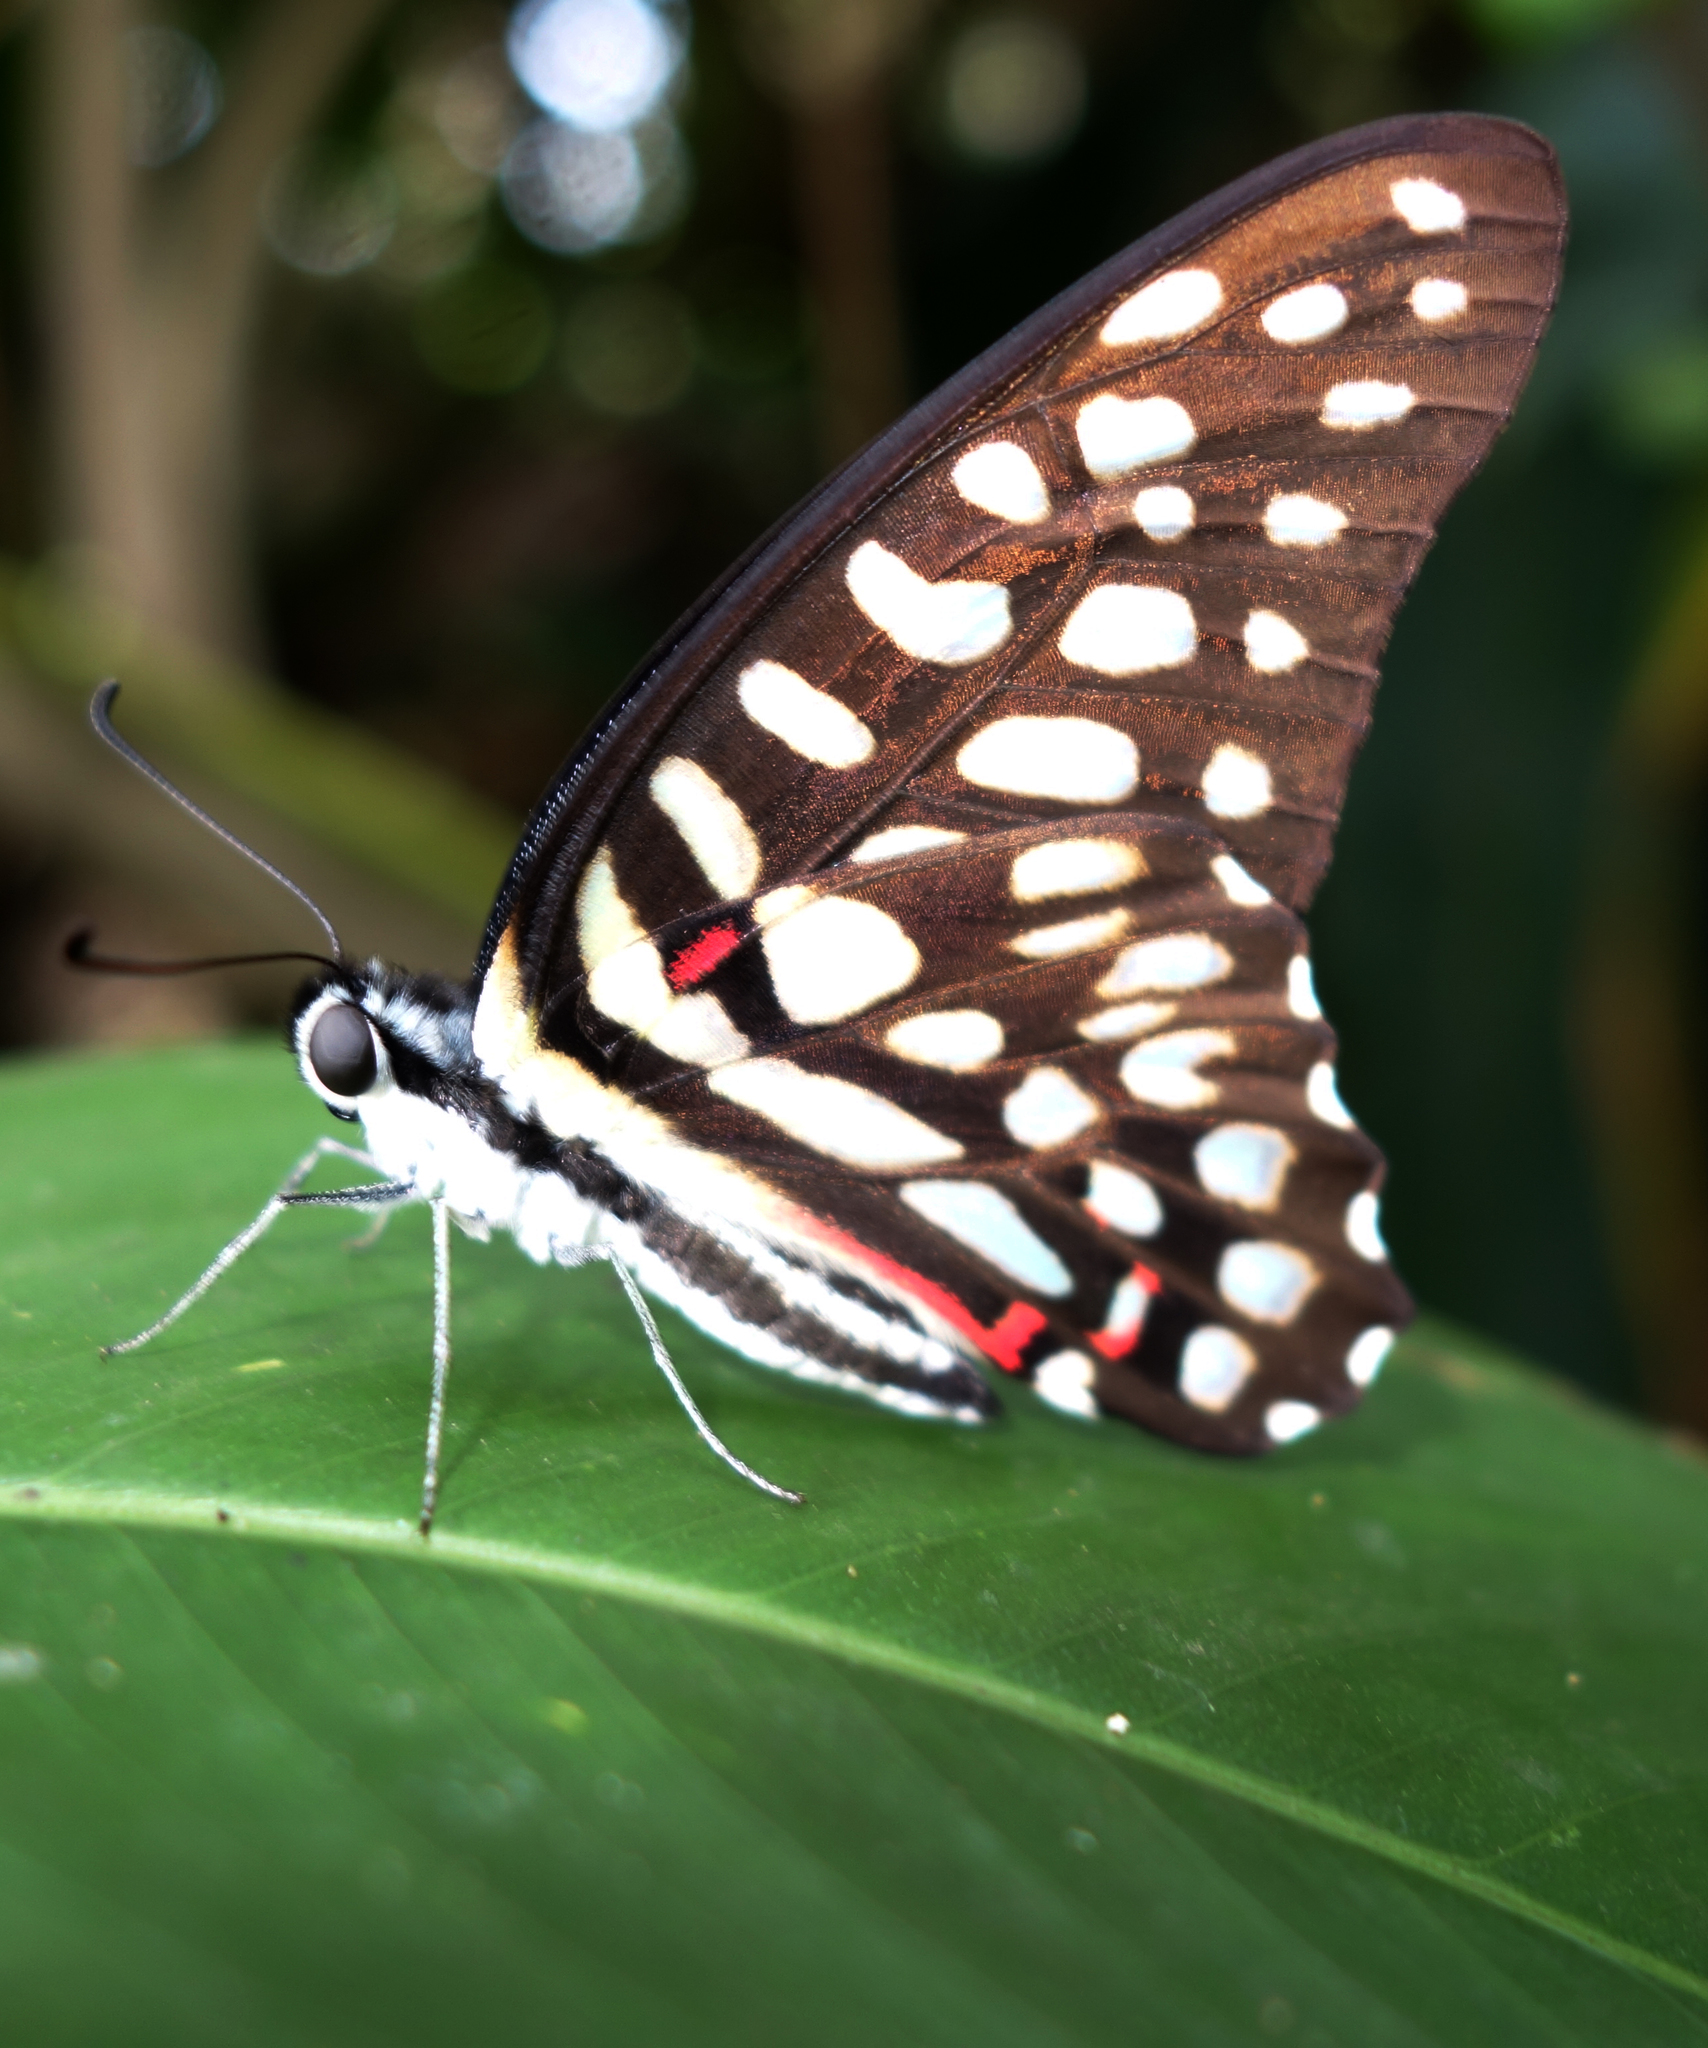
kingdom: Animalia
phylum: Arthropoda
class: Insecta
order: Lepidoptera
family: Papilionidae
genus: Graphium
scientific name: Graphium arycles
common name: Spotted jay
